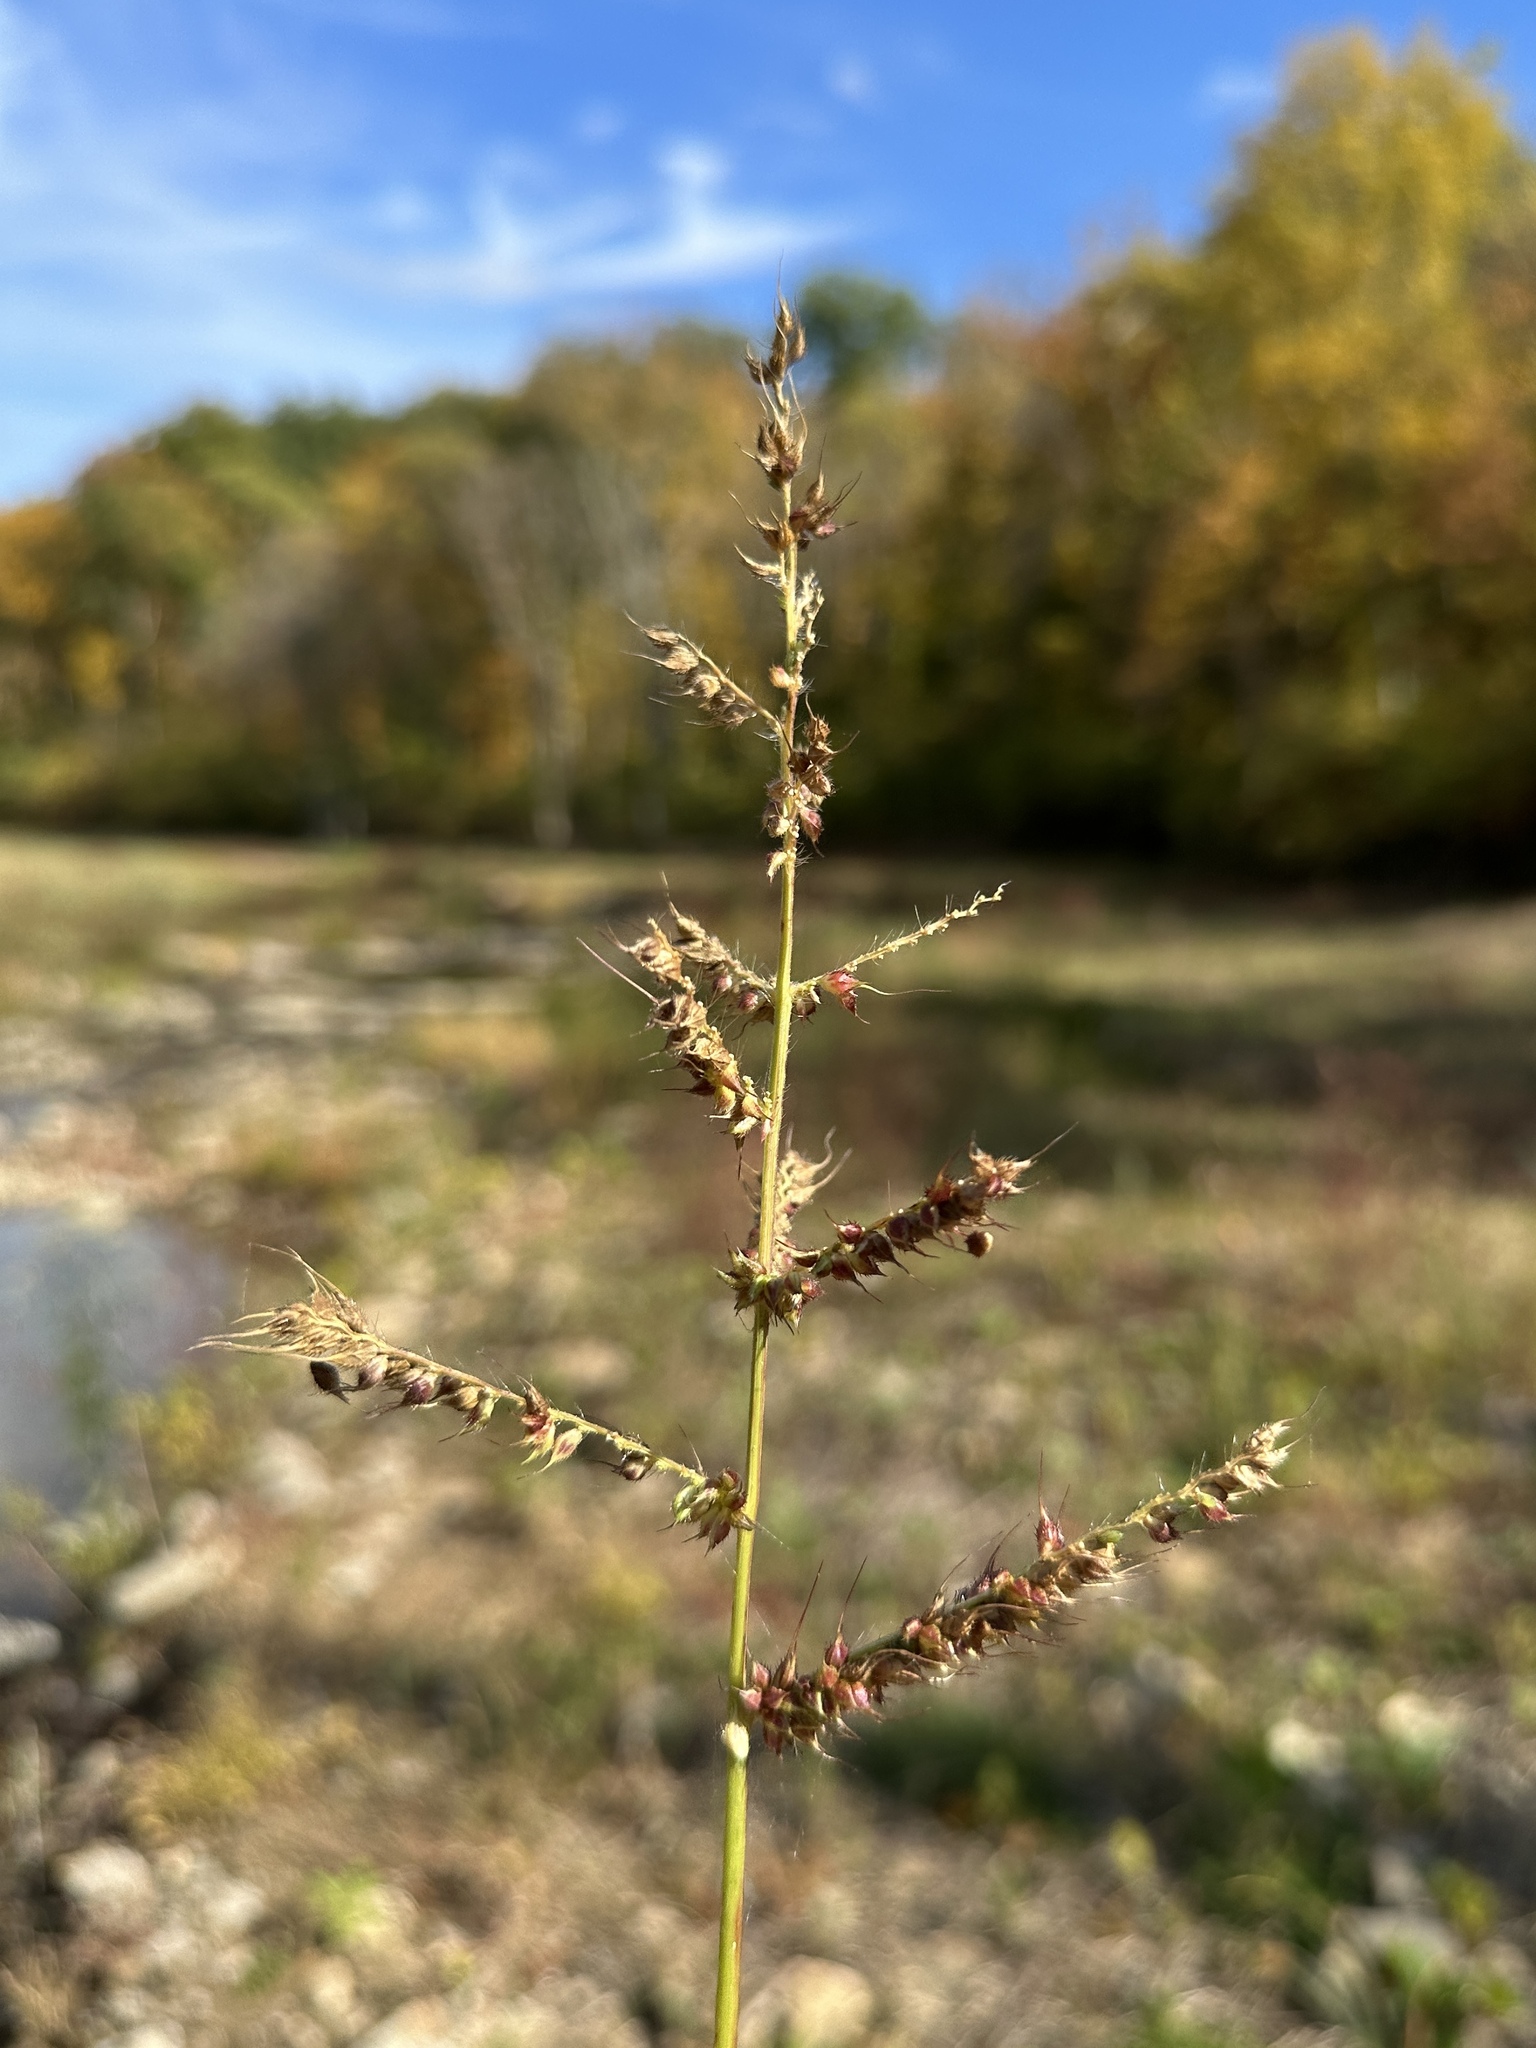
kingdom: Plantae
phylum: Tracheophyta
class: Liliopsida
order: Poales
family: Poaceae
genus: Echinochloa
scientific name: Echinochloa crus-galli
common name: Cockspur
